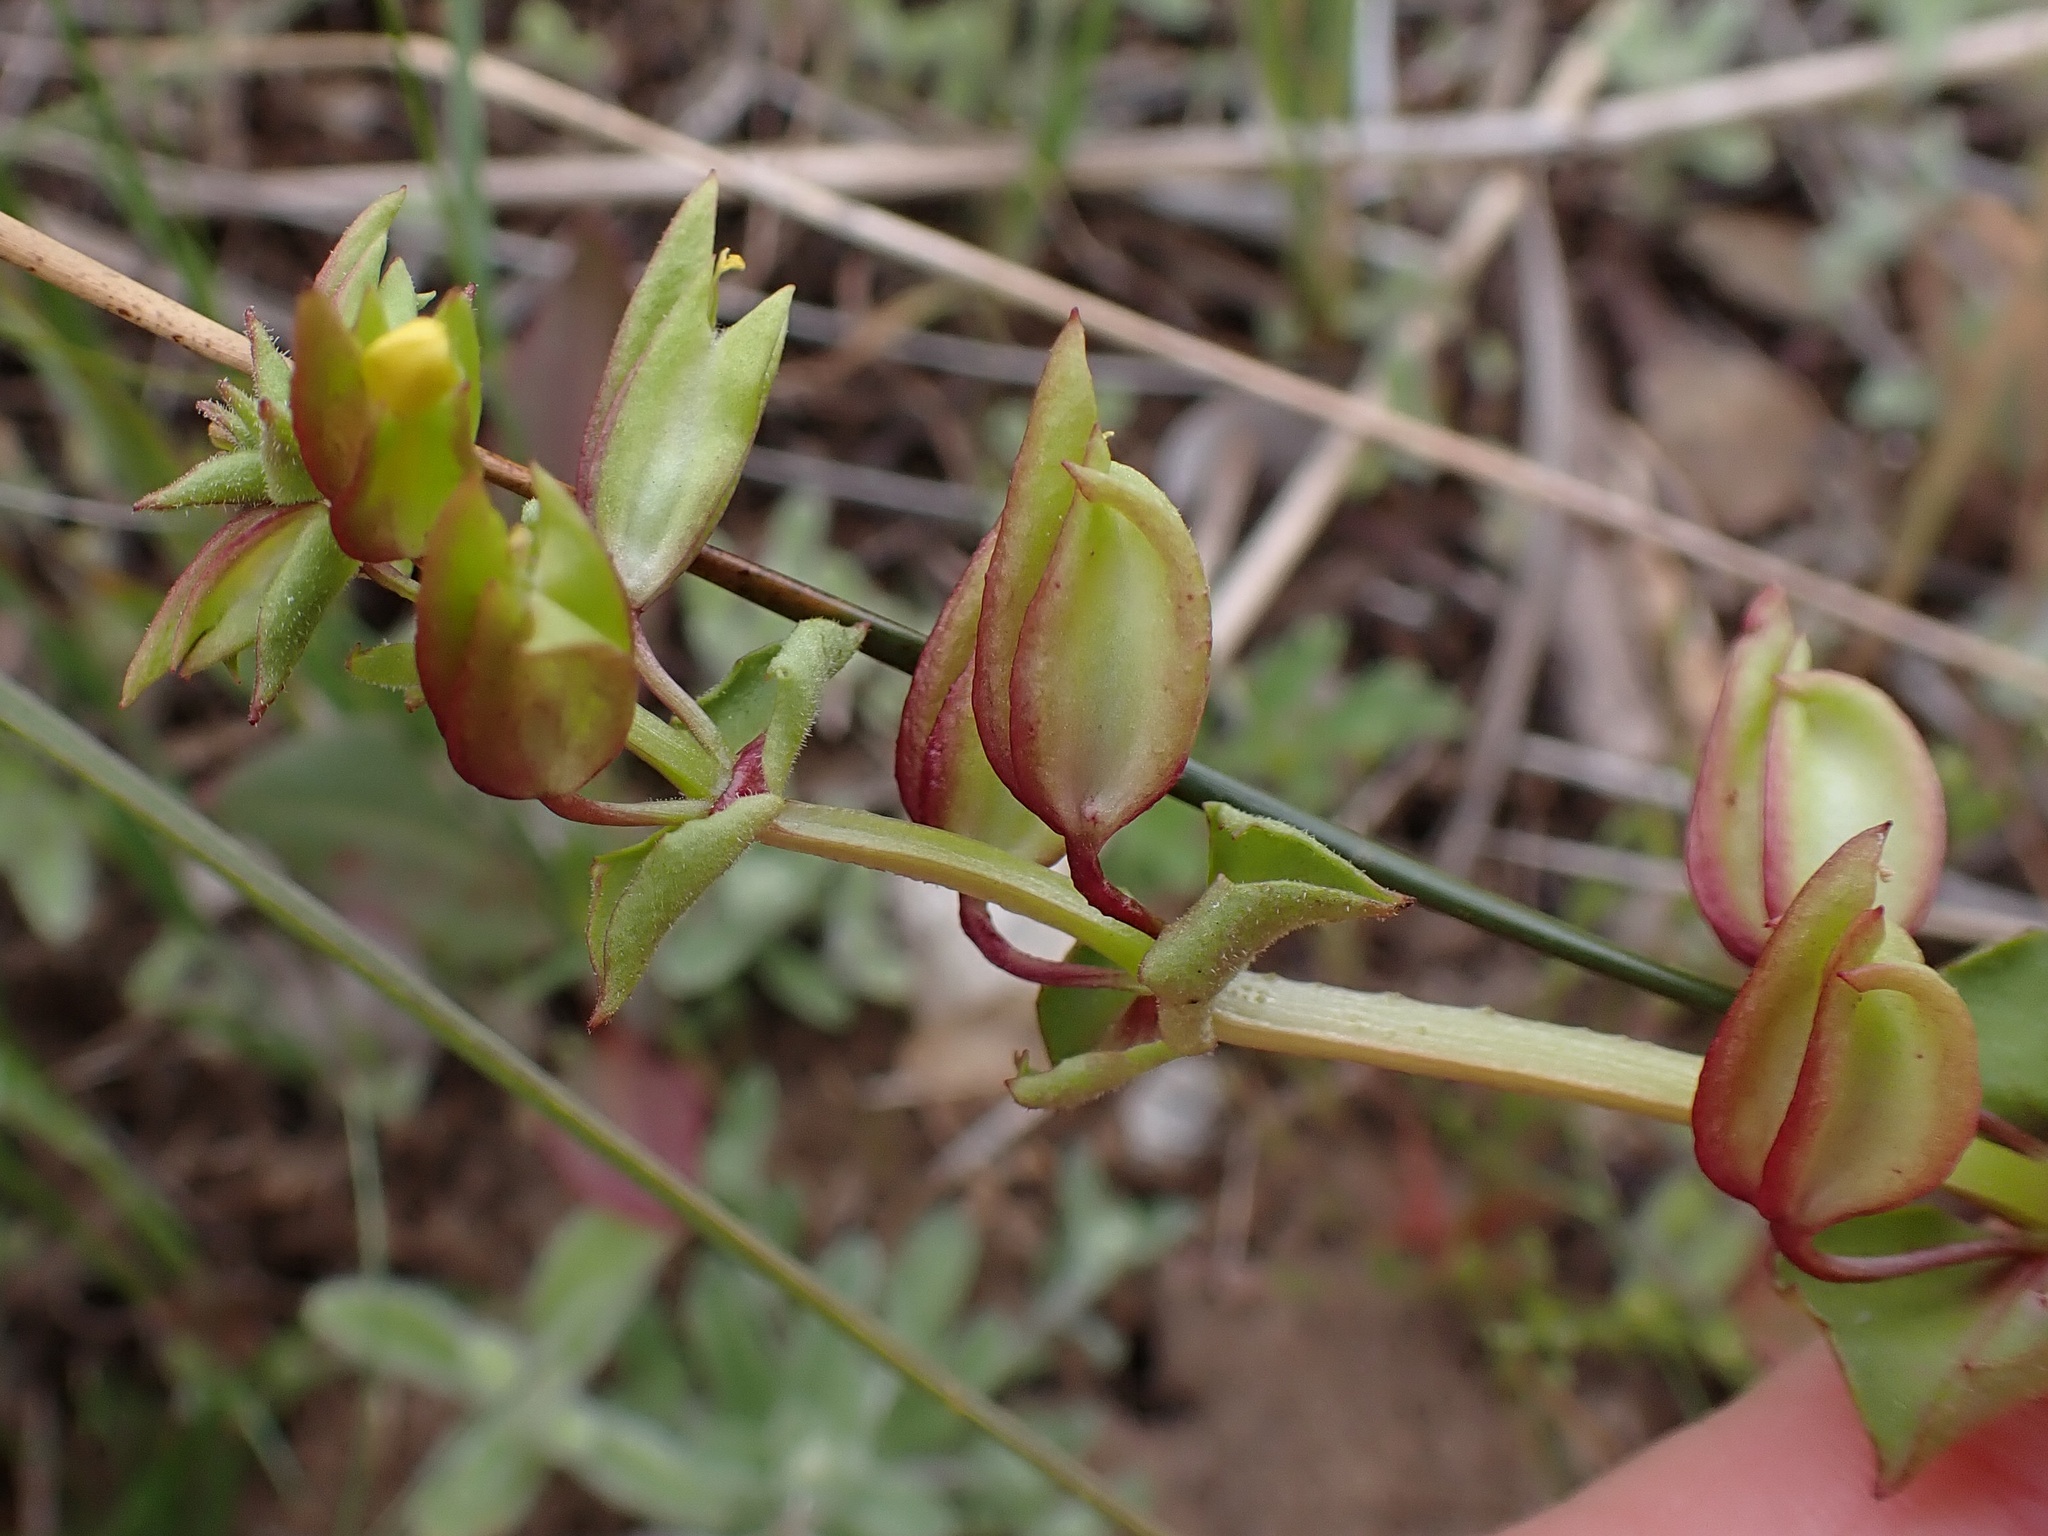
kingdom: Plantae
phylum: Tracheophyta
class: Magnoliopsida
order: Lamiales
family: Phrymaceae
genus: Erythranthe
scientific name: Erythranthe nasuta
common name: Sooke monkeyflower
